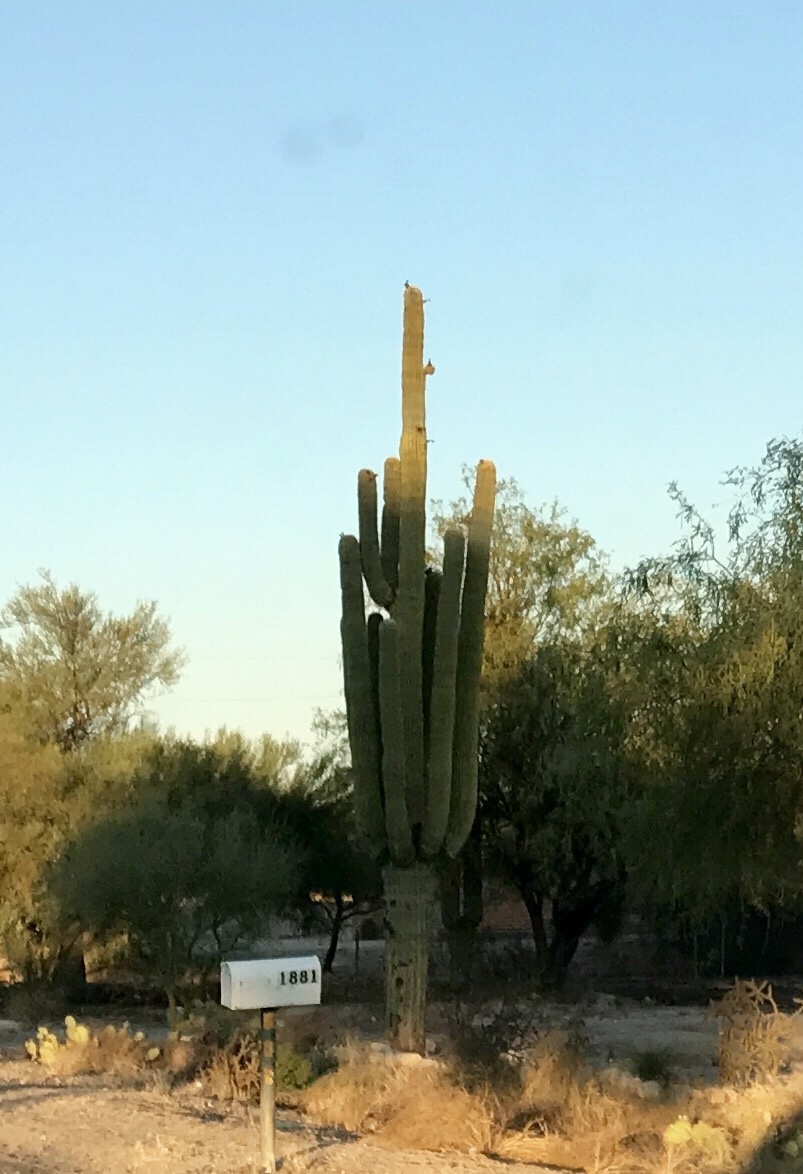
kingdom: Plantae
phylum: Tracheophyta
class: Magnoliopsida
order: Caryophyllales
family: Cactaceae
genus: Carnegiea
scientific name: Carnegiea gigantea
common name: Saguaro
